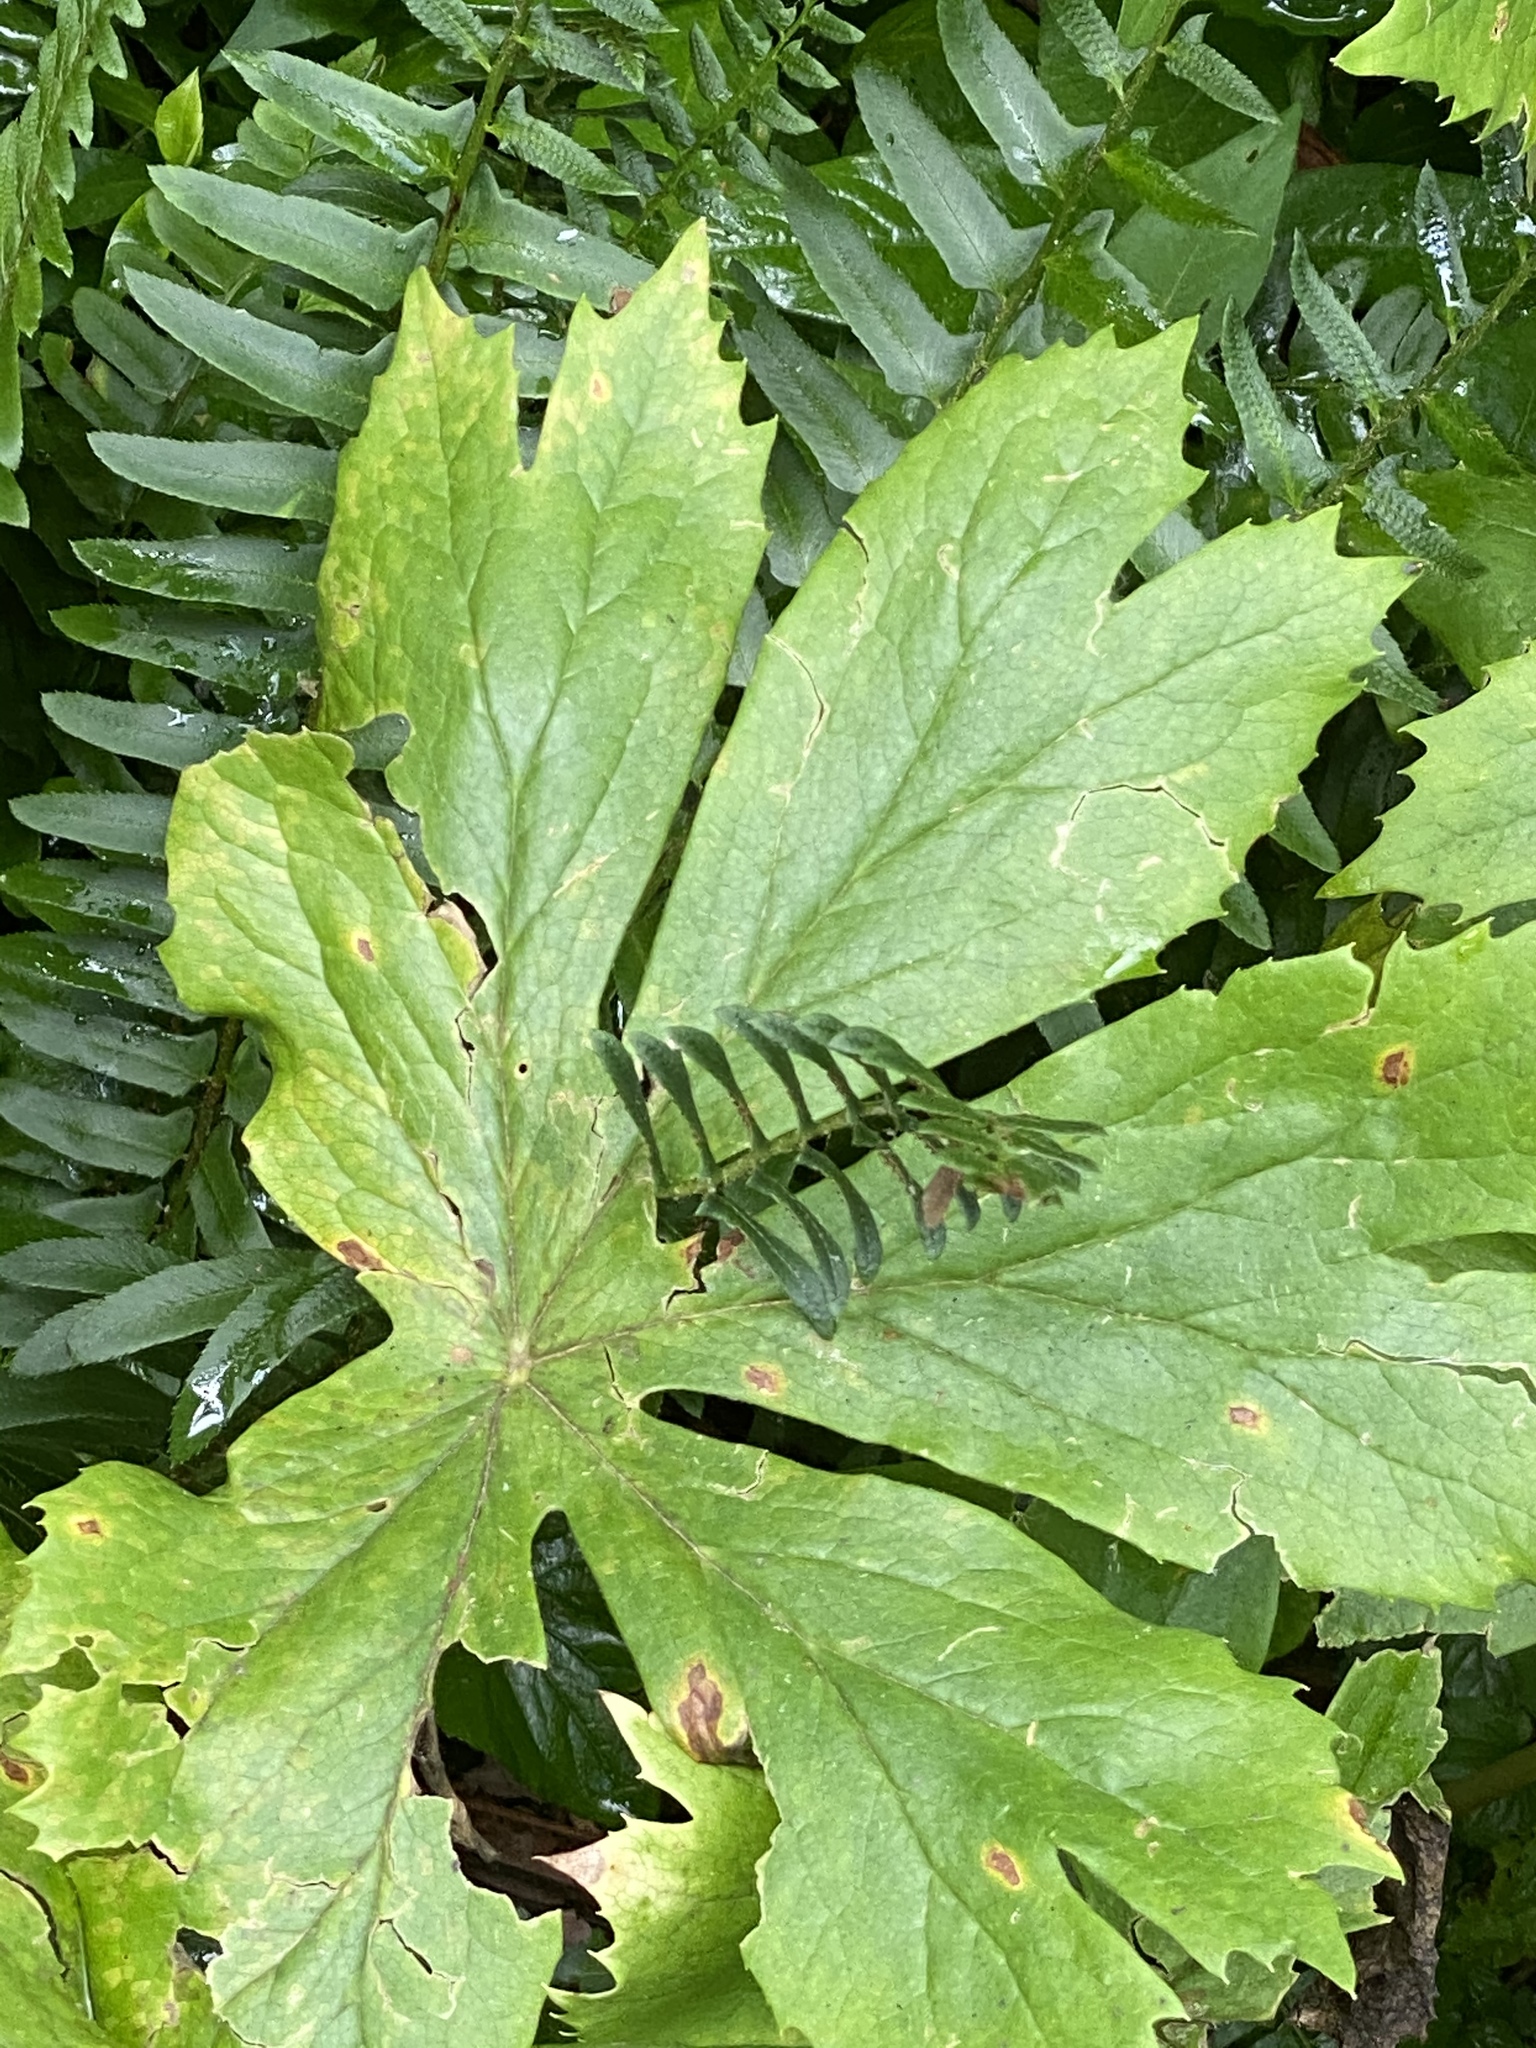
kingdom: Plantae
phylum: Tracheophyta
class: Magnoliopsida
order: Ranunculales
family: Berberidaceae
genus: Podophyllum
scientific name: Podophyllum peltatum
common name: Wild mandrake
